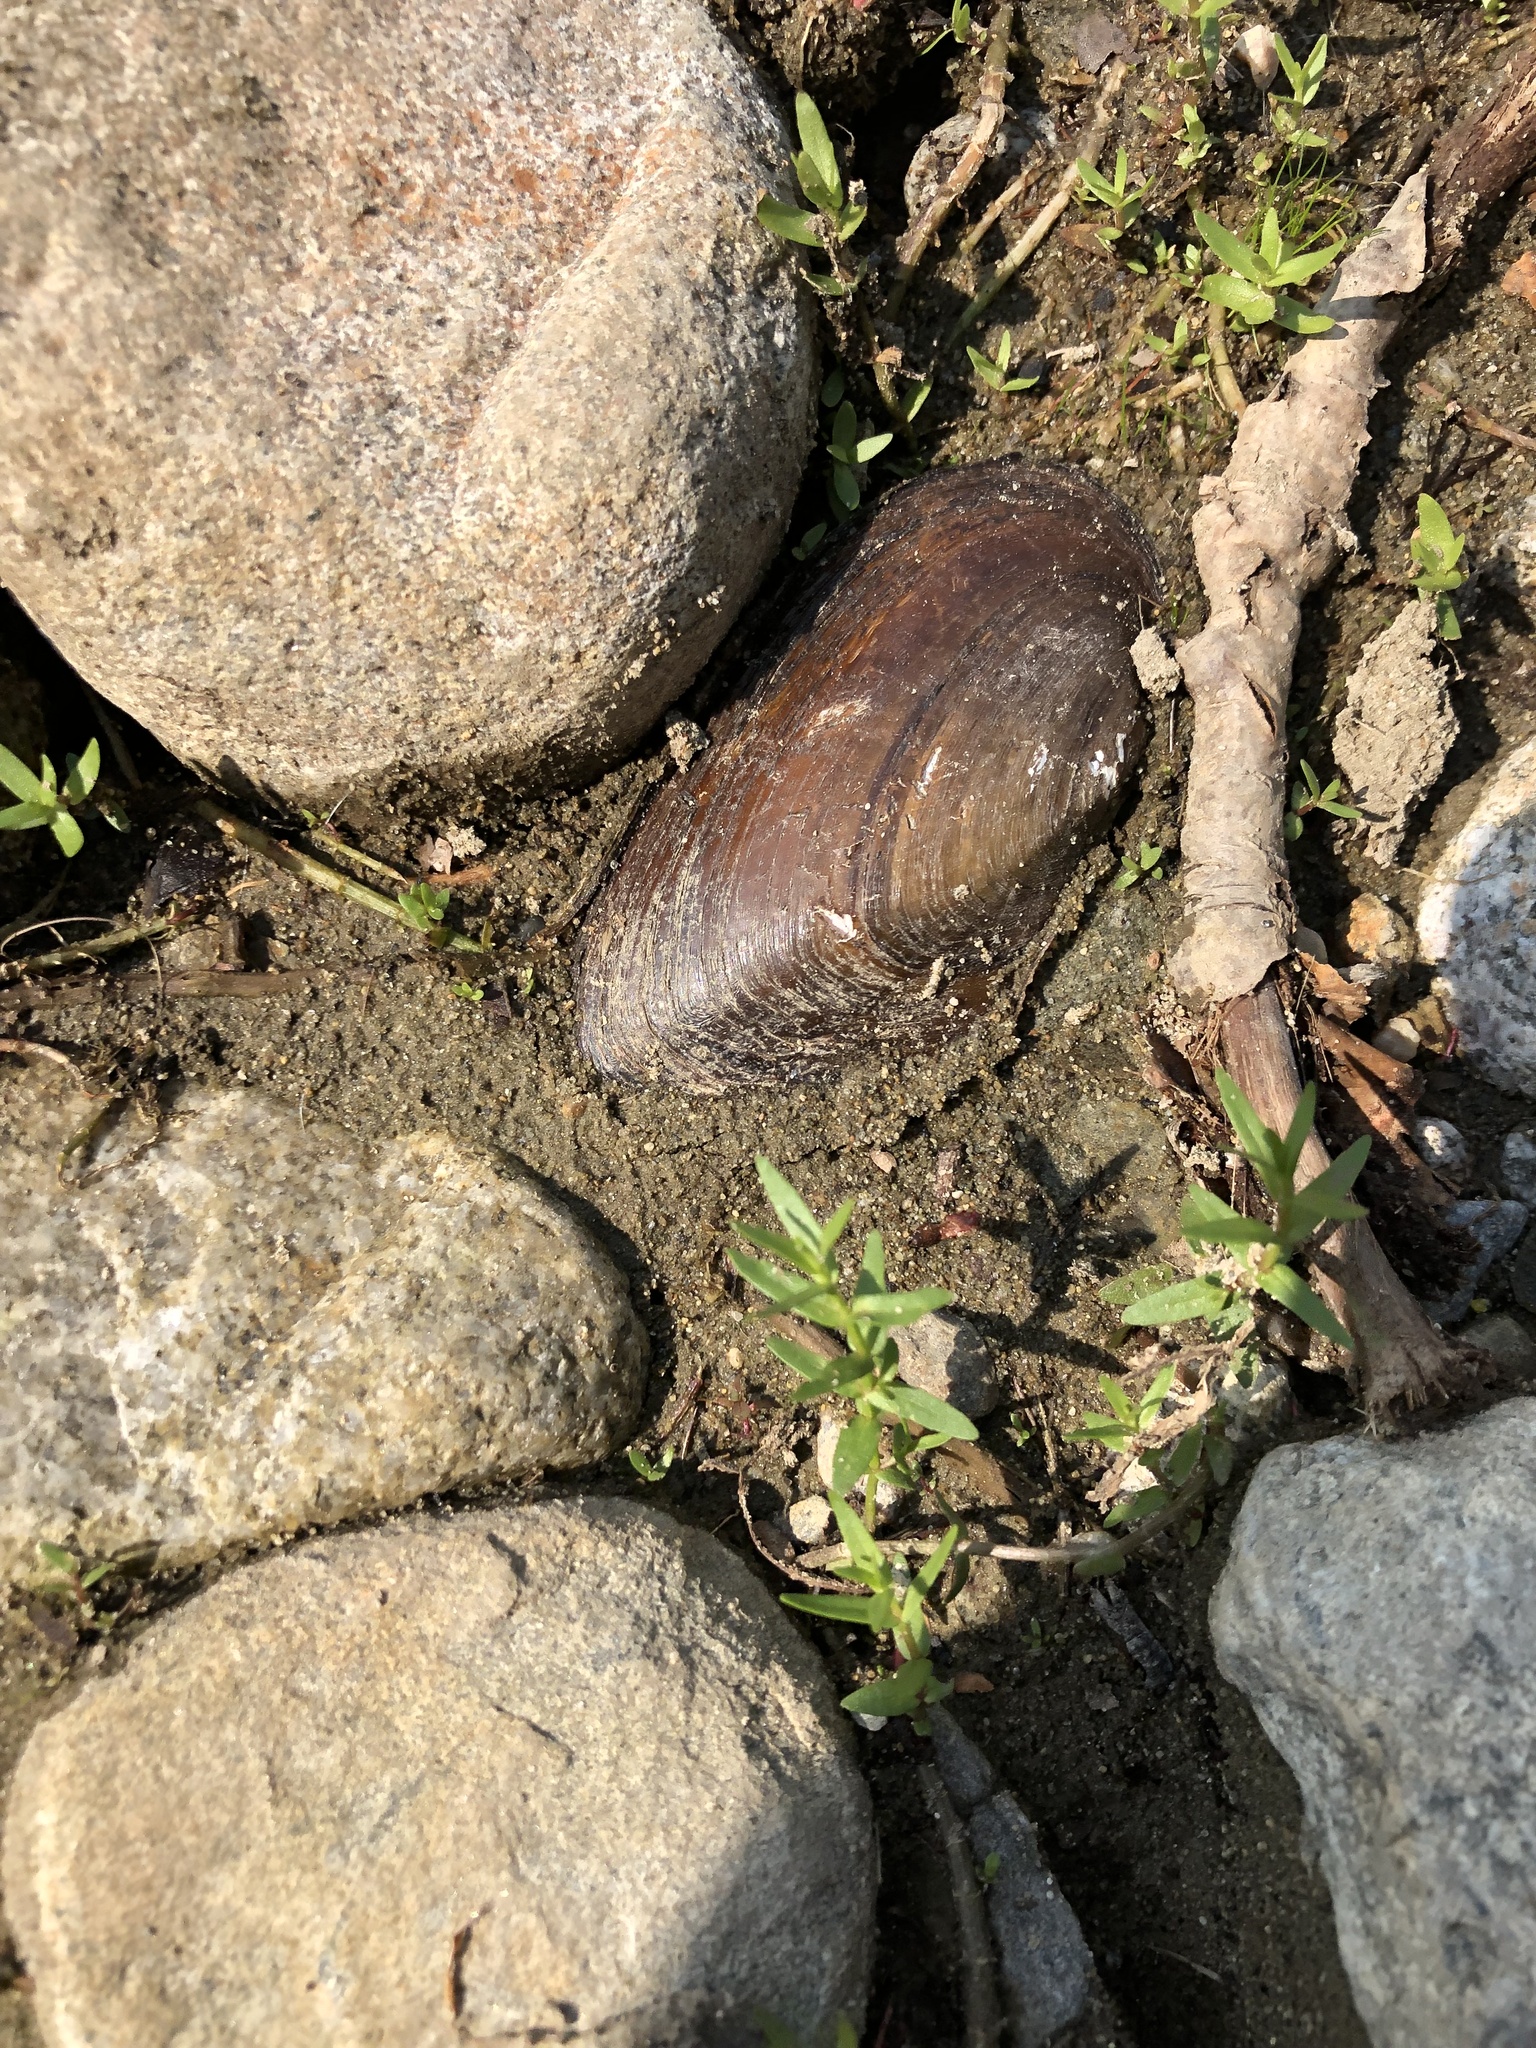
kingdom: Animalia
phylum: Mollusca
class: Bivalvia
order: Unionida
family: Unionidae
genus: Elliptio
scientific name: Elliptio complanata
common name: Eastern elliptio
